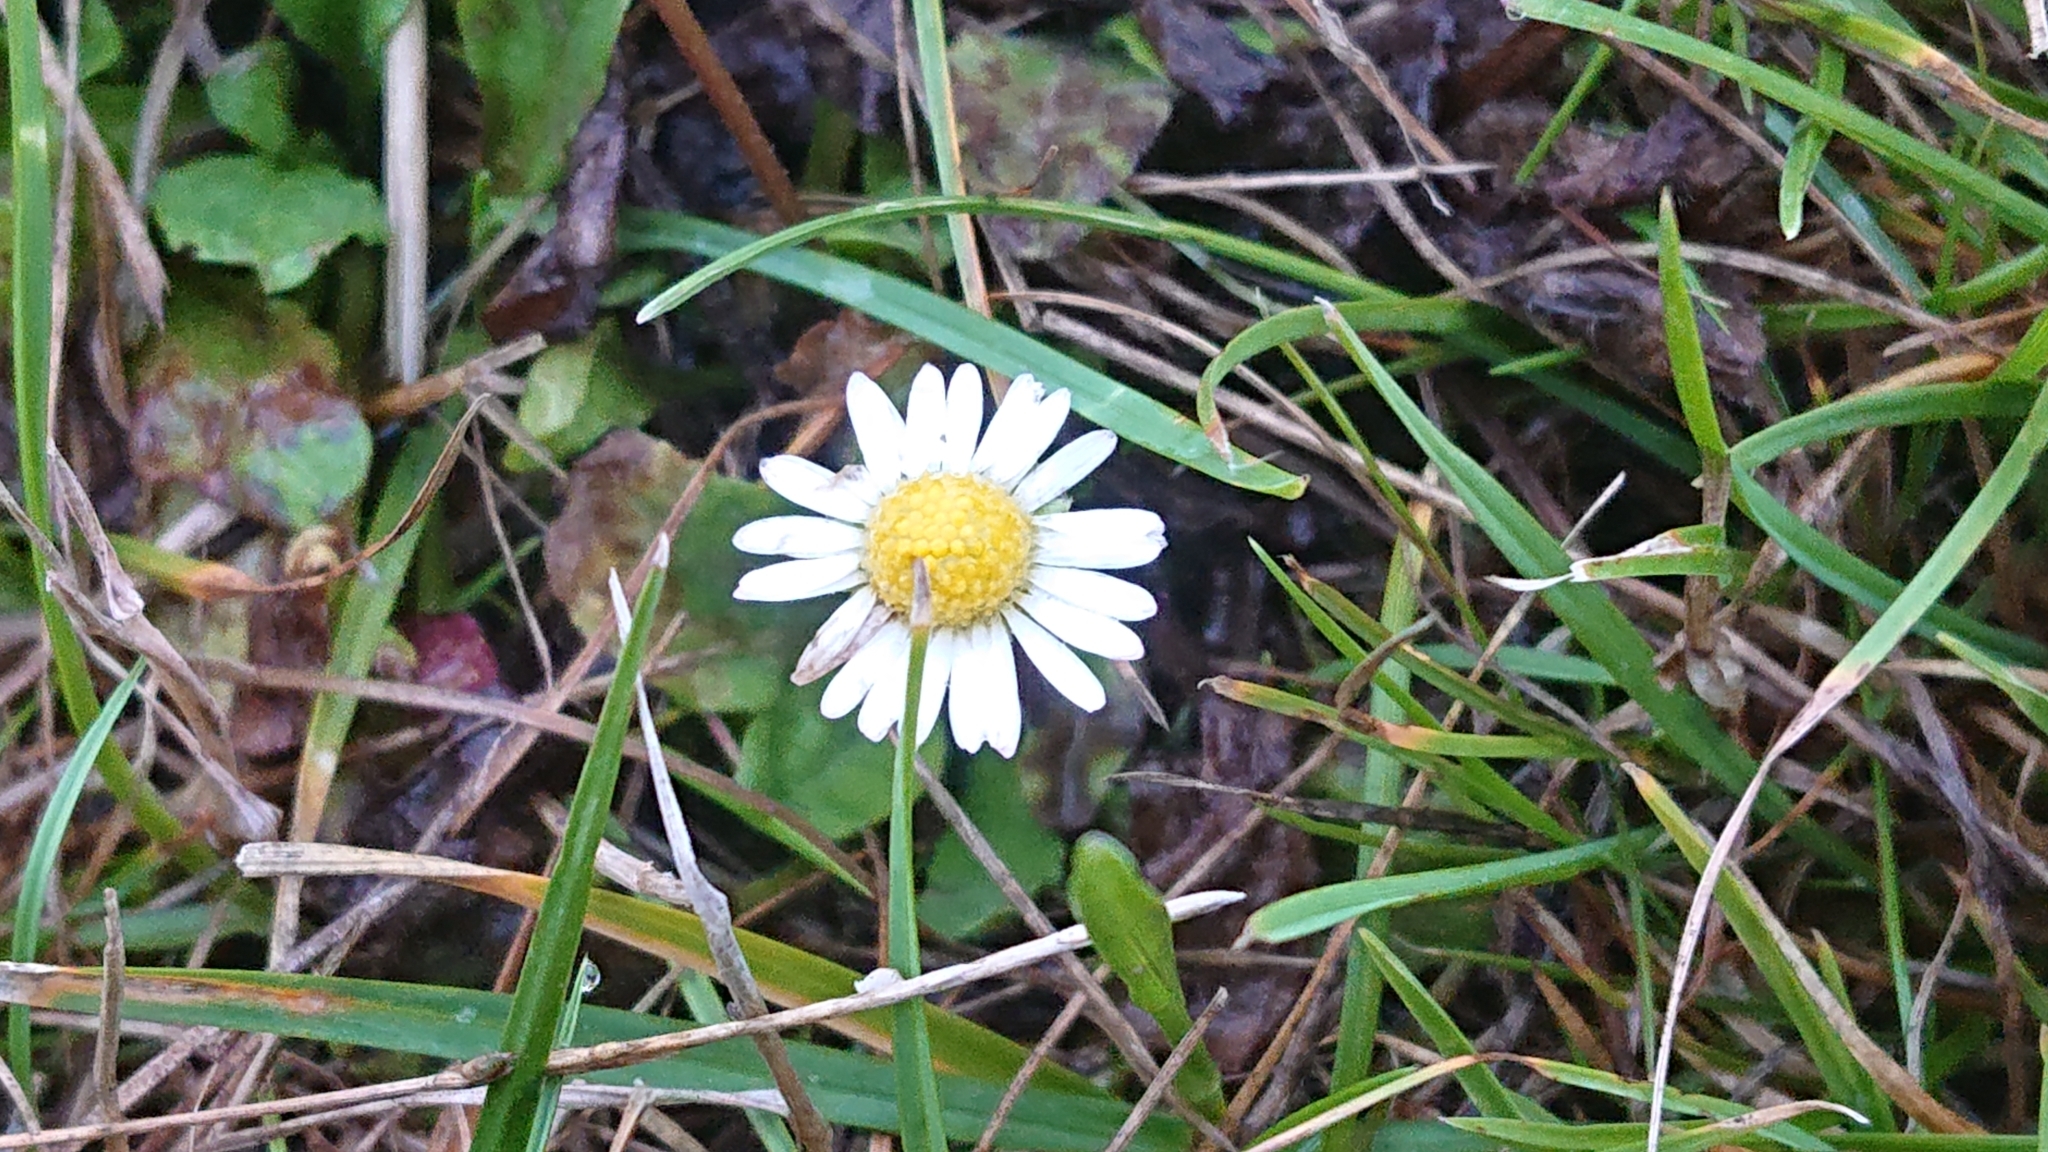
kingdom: Plantae
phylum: Tracheophyta
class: Magnoliopsida
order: Asterales
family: Asteraceae
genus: Bellis
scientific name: Bellis perennis
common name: Lawndaisy
